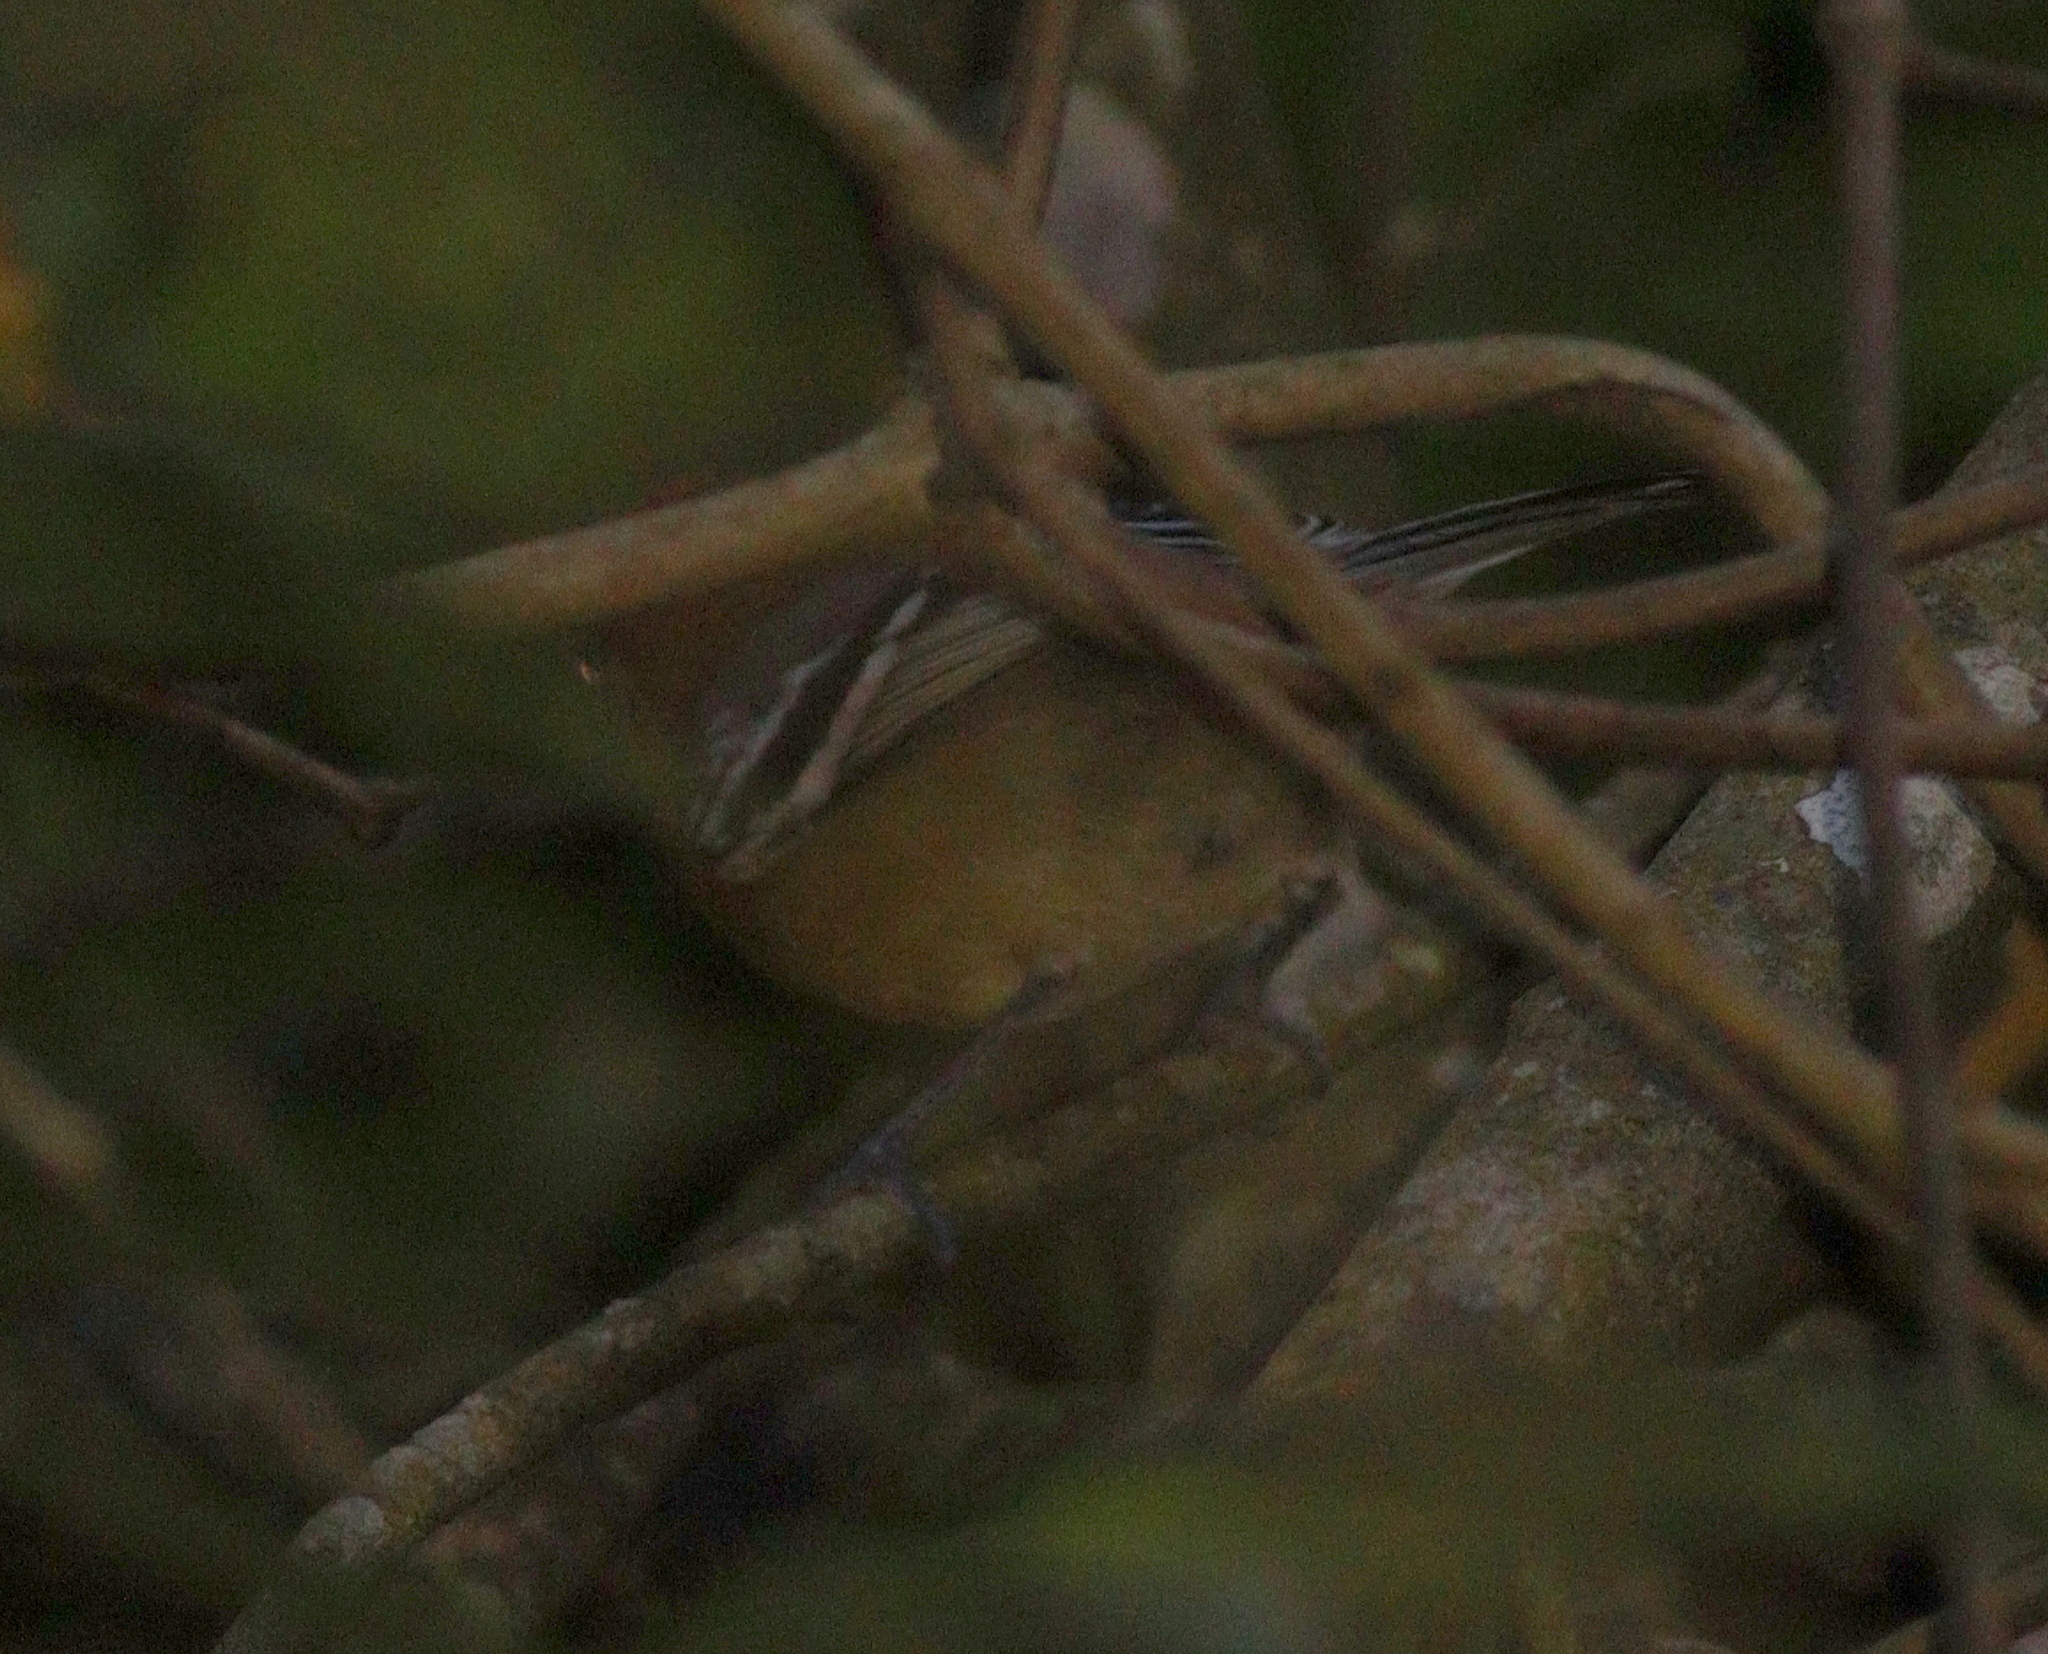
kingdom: Animalia
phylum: Chordata
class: Aves
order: Passeriformes
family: Thamnophilidae
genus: Herpsilochmus
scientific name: Herpsilochmus longirostris
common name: Large-billed antwren
